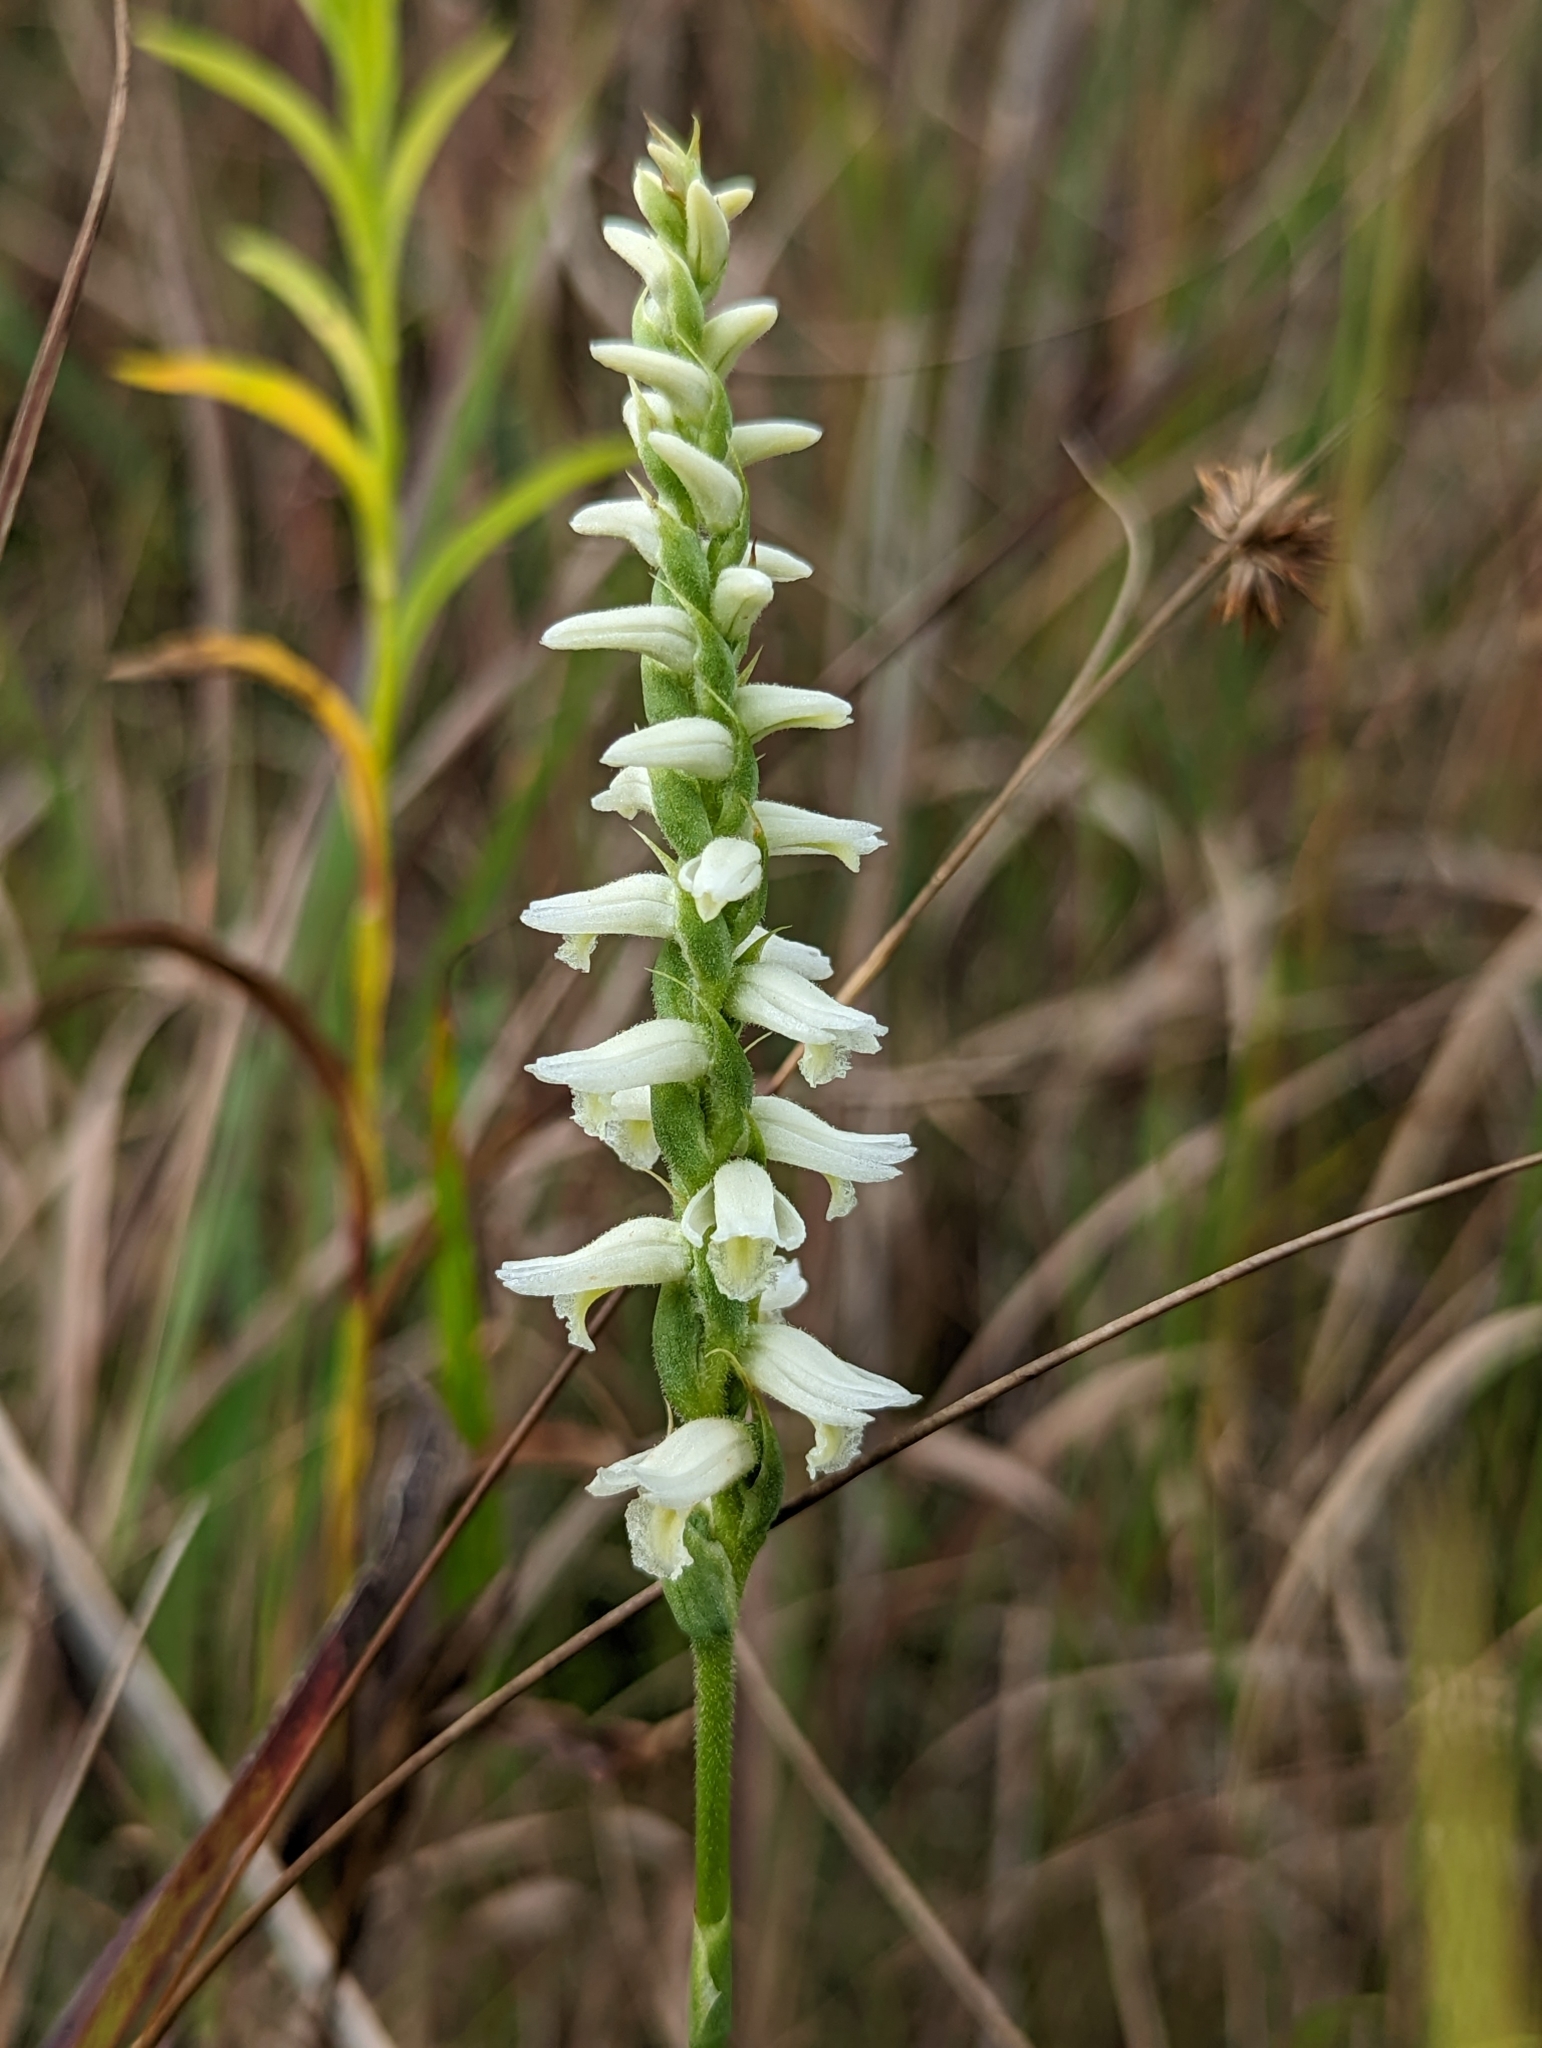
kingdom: Plantae
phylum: Tracheophyta
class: Liliopsida
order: Asparagales
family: Orchidaceae
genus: Spiranthes
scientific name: Spiranthes magnicamporum
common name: Great plains ladies'-tresses
